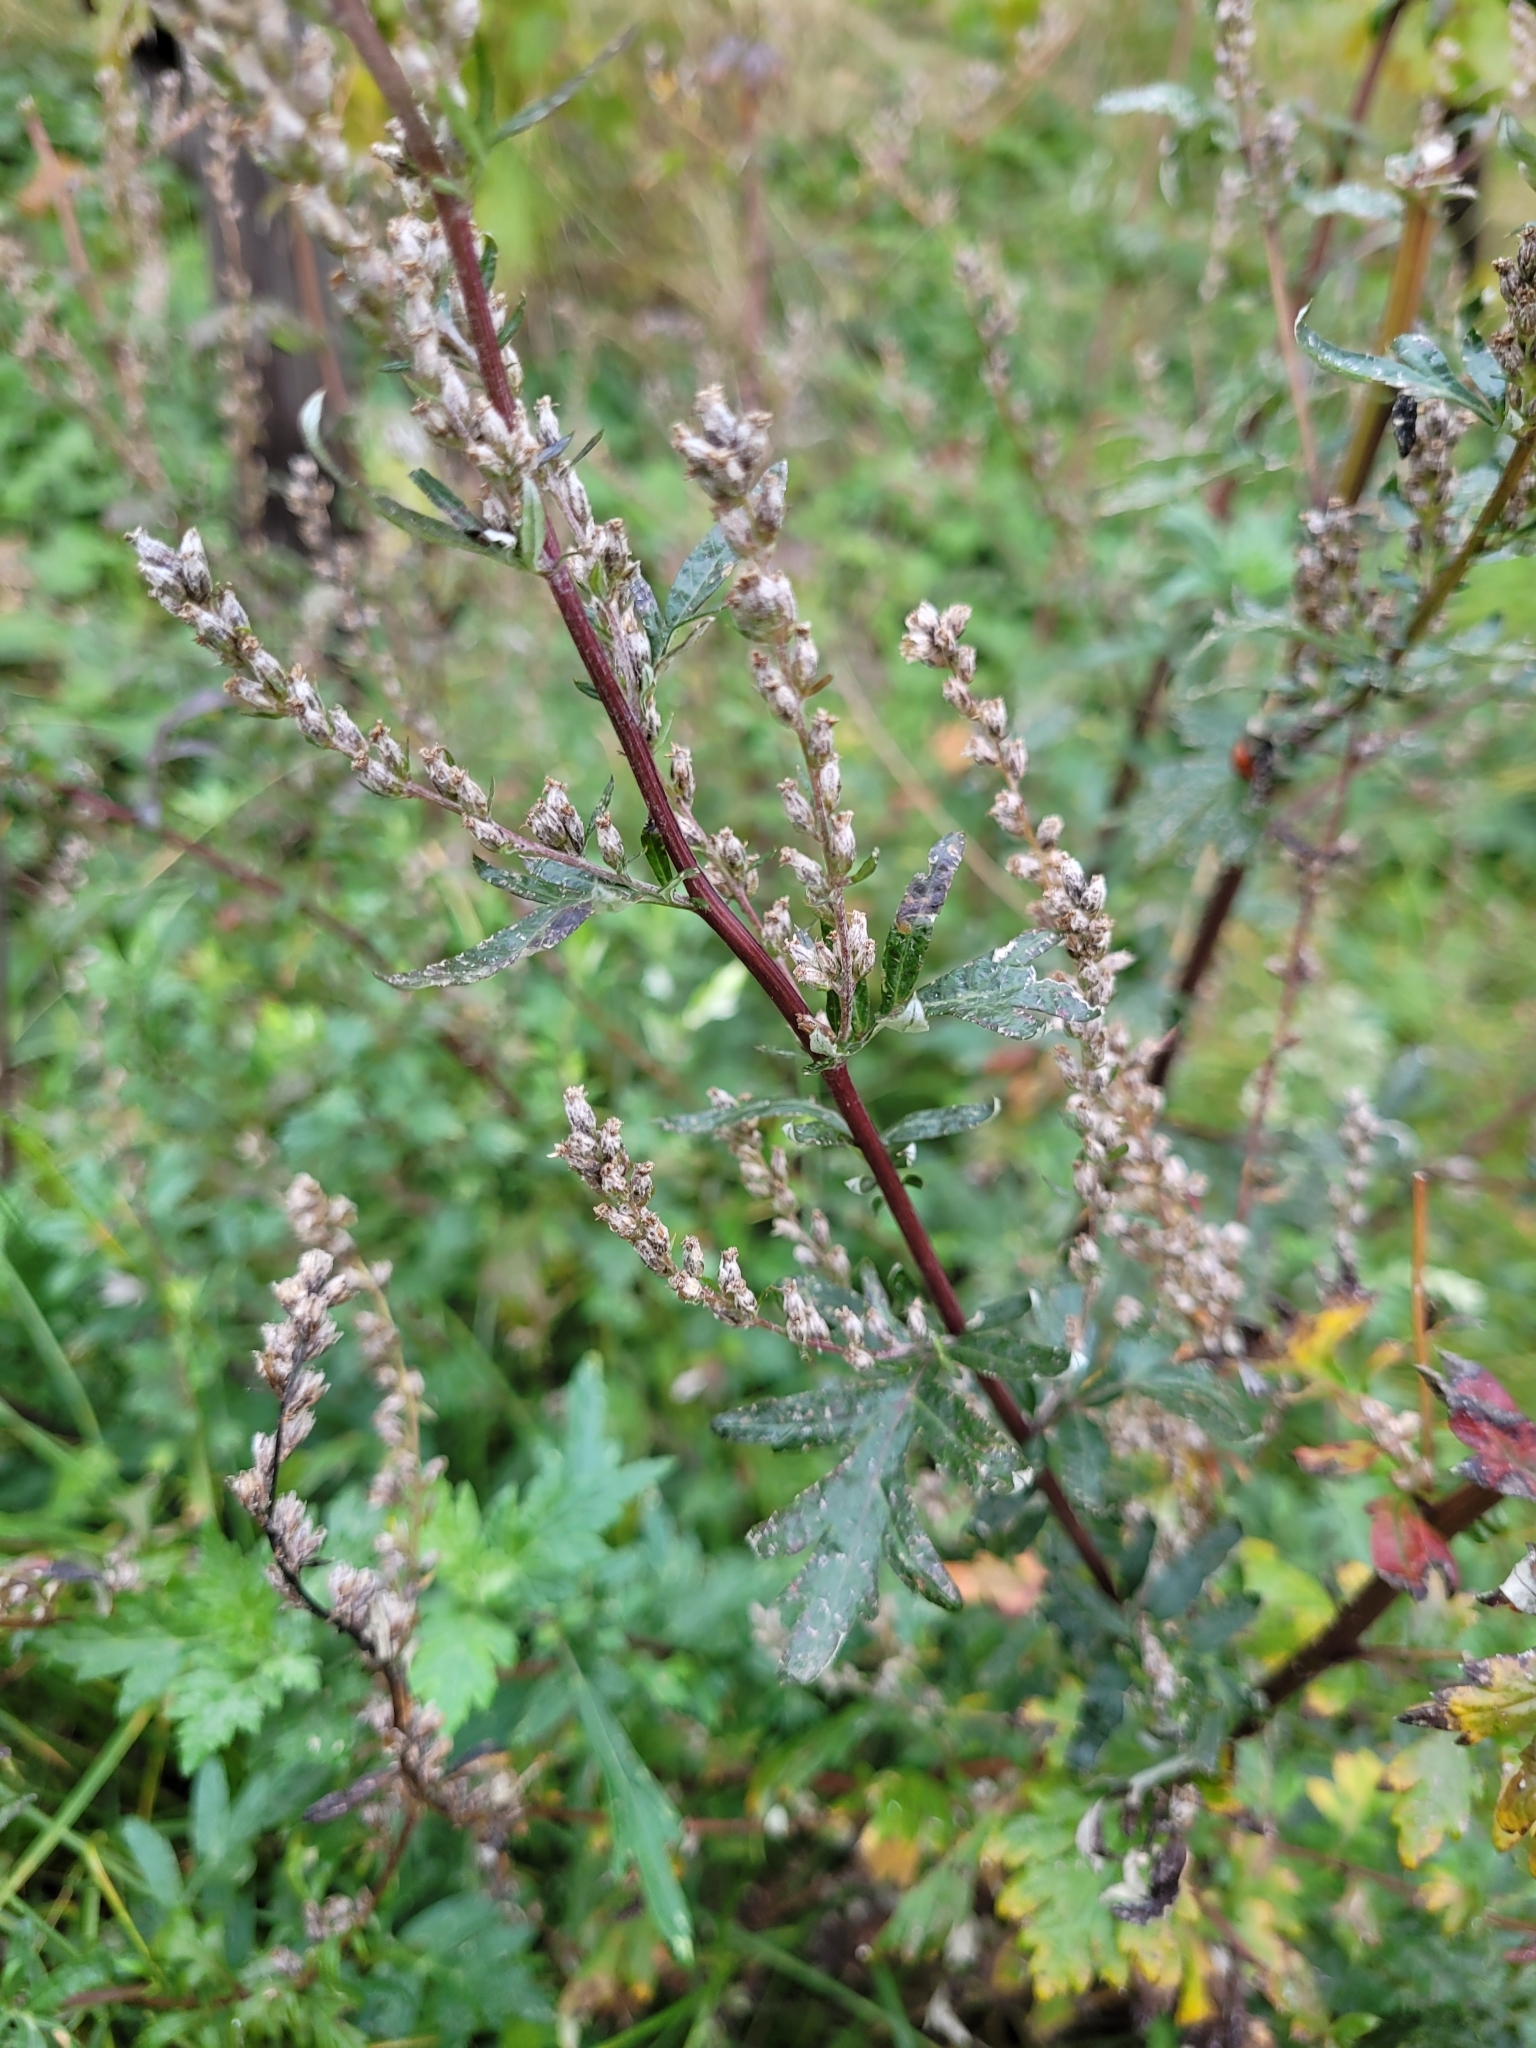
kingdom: Plantae
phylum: Tracheophyta
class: Magnoliopsida
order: Asterales
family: Asteraceae
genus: Artemisia
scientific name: Artemisia vulgaris
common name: Mugwort
